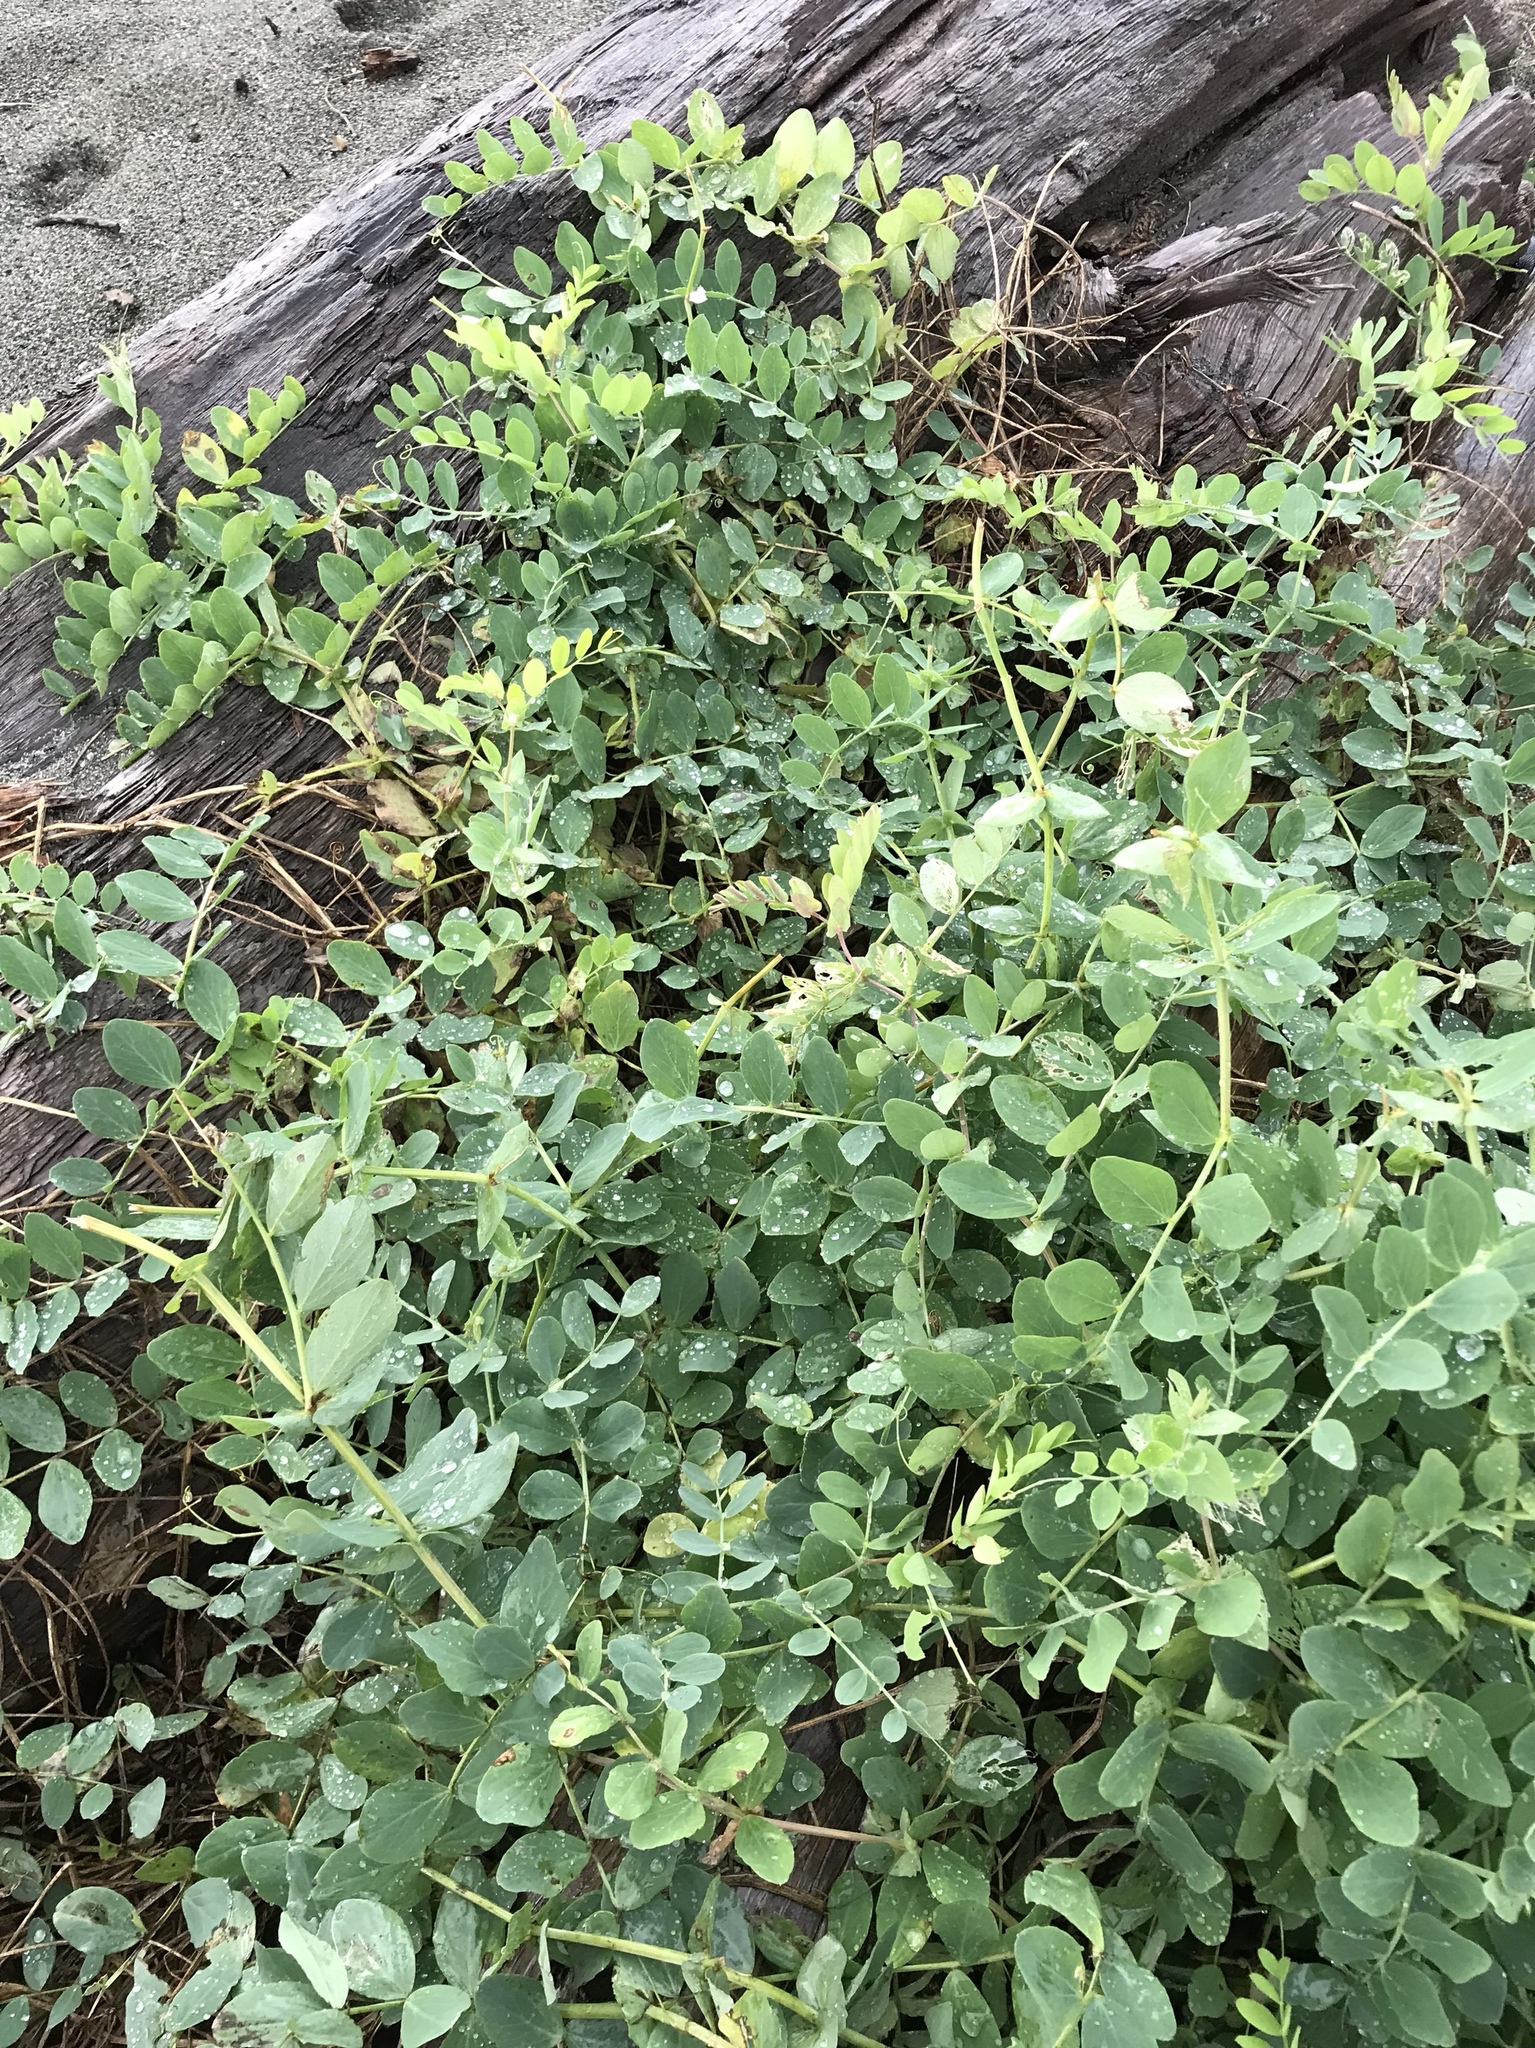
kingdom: Plantae
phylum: Tracheophyta
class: Magnoliopsida
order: Fabales
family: Fabaceae
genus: Lathyrus
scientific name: Lathyrus japonicus
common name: Sea pea
